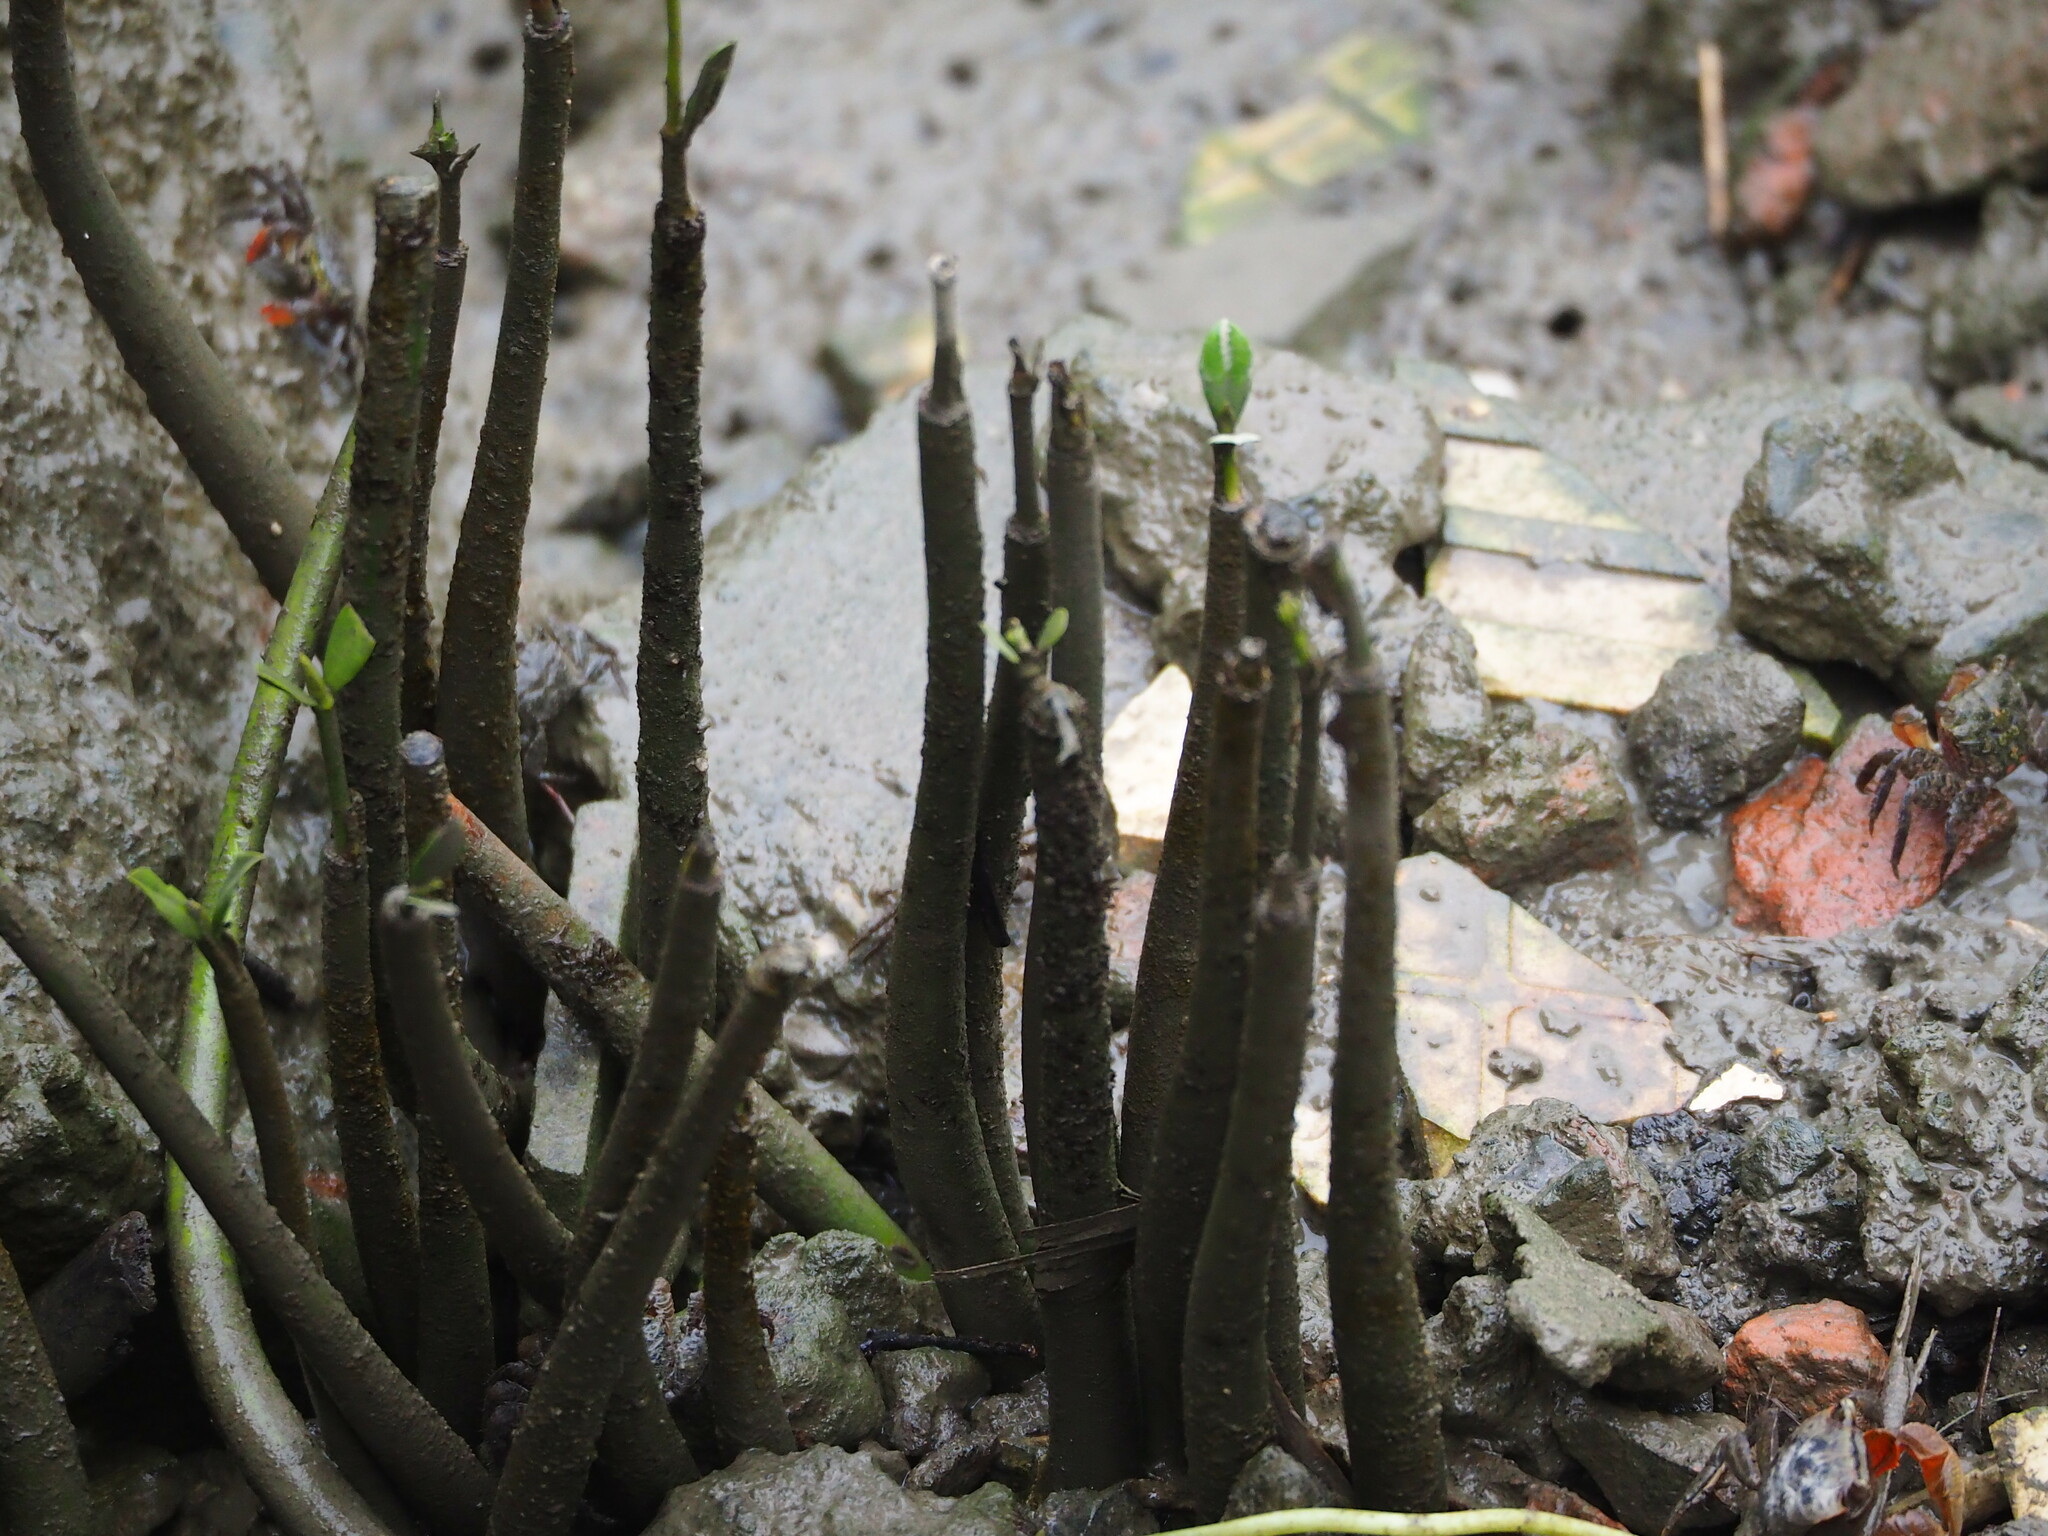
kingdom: Plantae
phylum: Tracheophyta
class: Magnoliopsida
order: Malpighiales
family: Rhizophoraceae
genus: Kandelia
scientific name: Kandelia obovata
